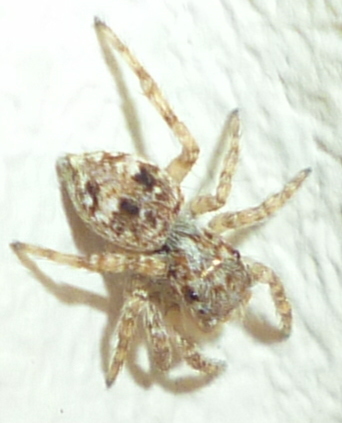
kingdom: Animalia
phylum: Arthropoda
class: Arachnida
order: Araneae
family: Salticidae
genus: Attulus
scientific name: Attulus fasciger
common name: Asiatic wall jumping spider
